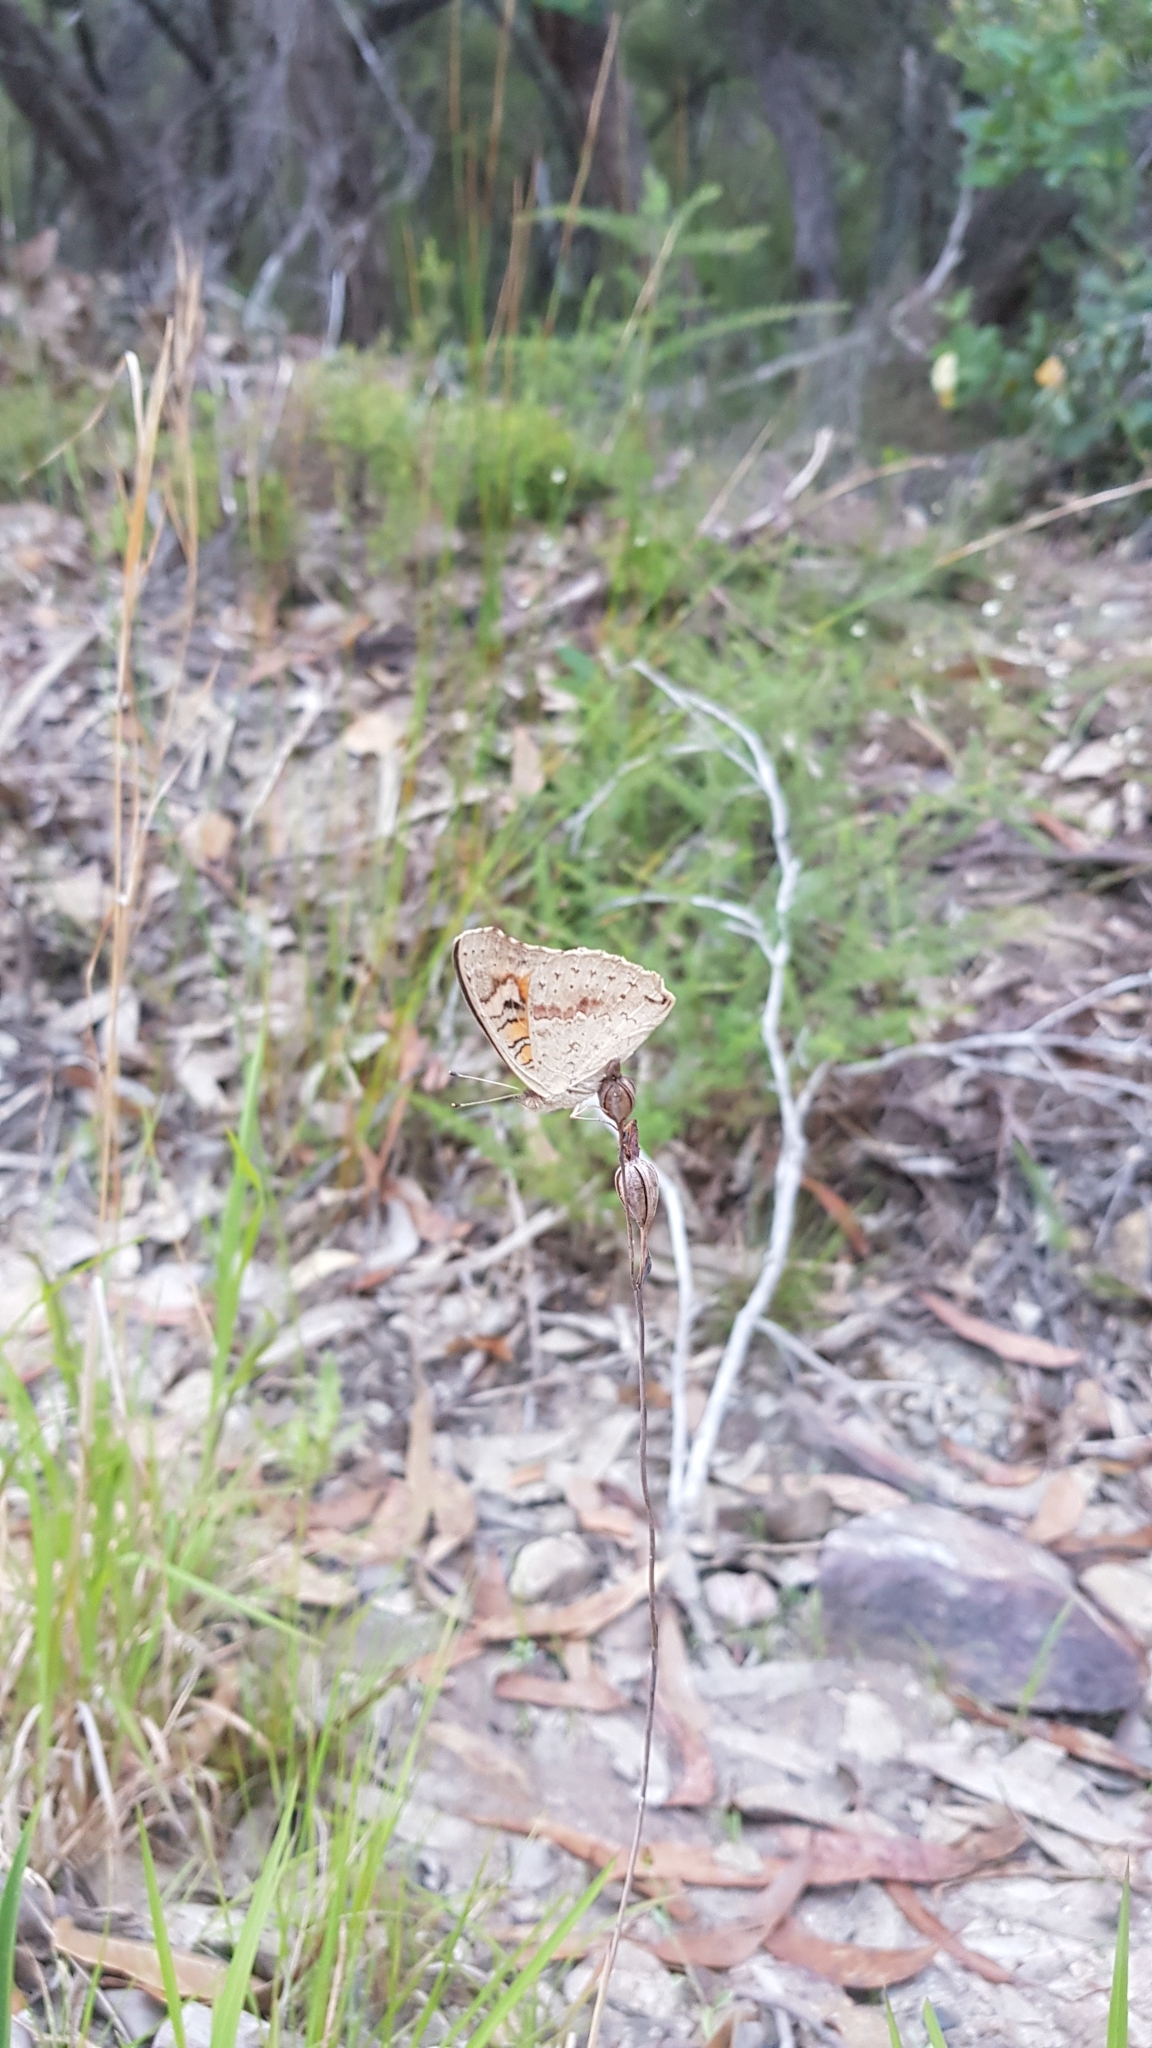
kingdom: Animalia
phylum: Arthropoda
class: Insecta
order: Lepidoptera
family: Nymphalidae
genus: Junonia
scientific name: Junonia villida
